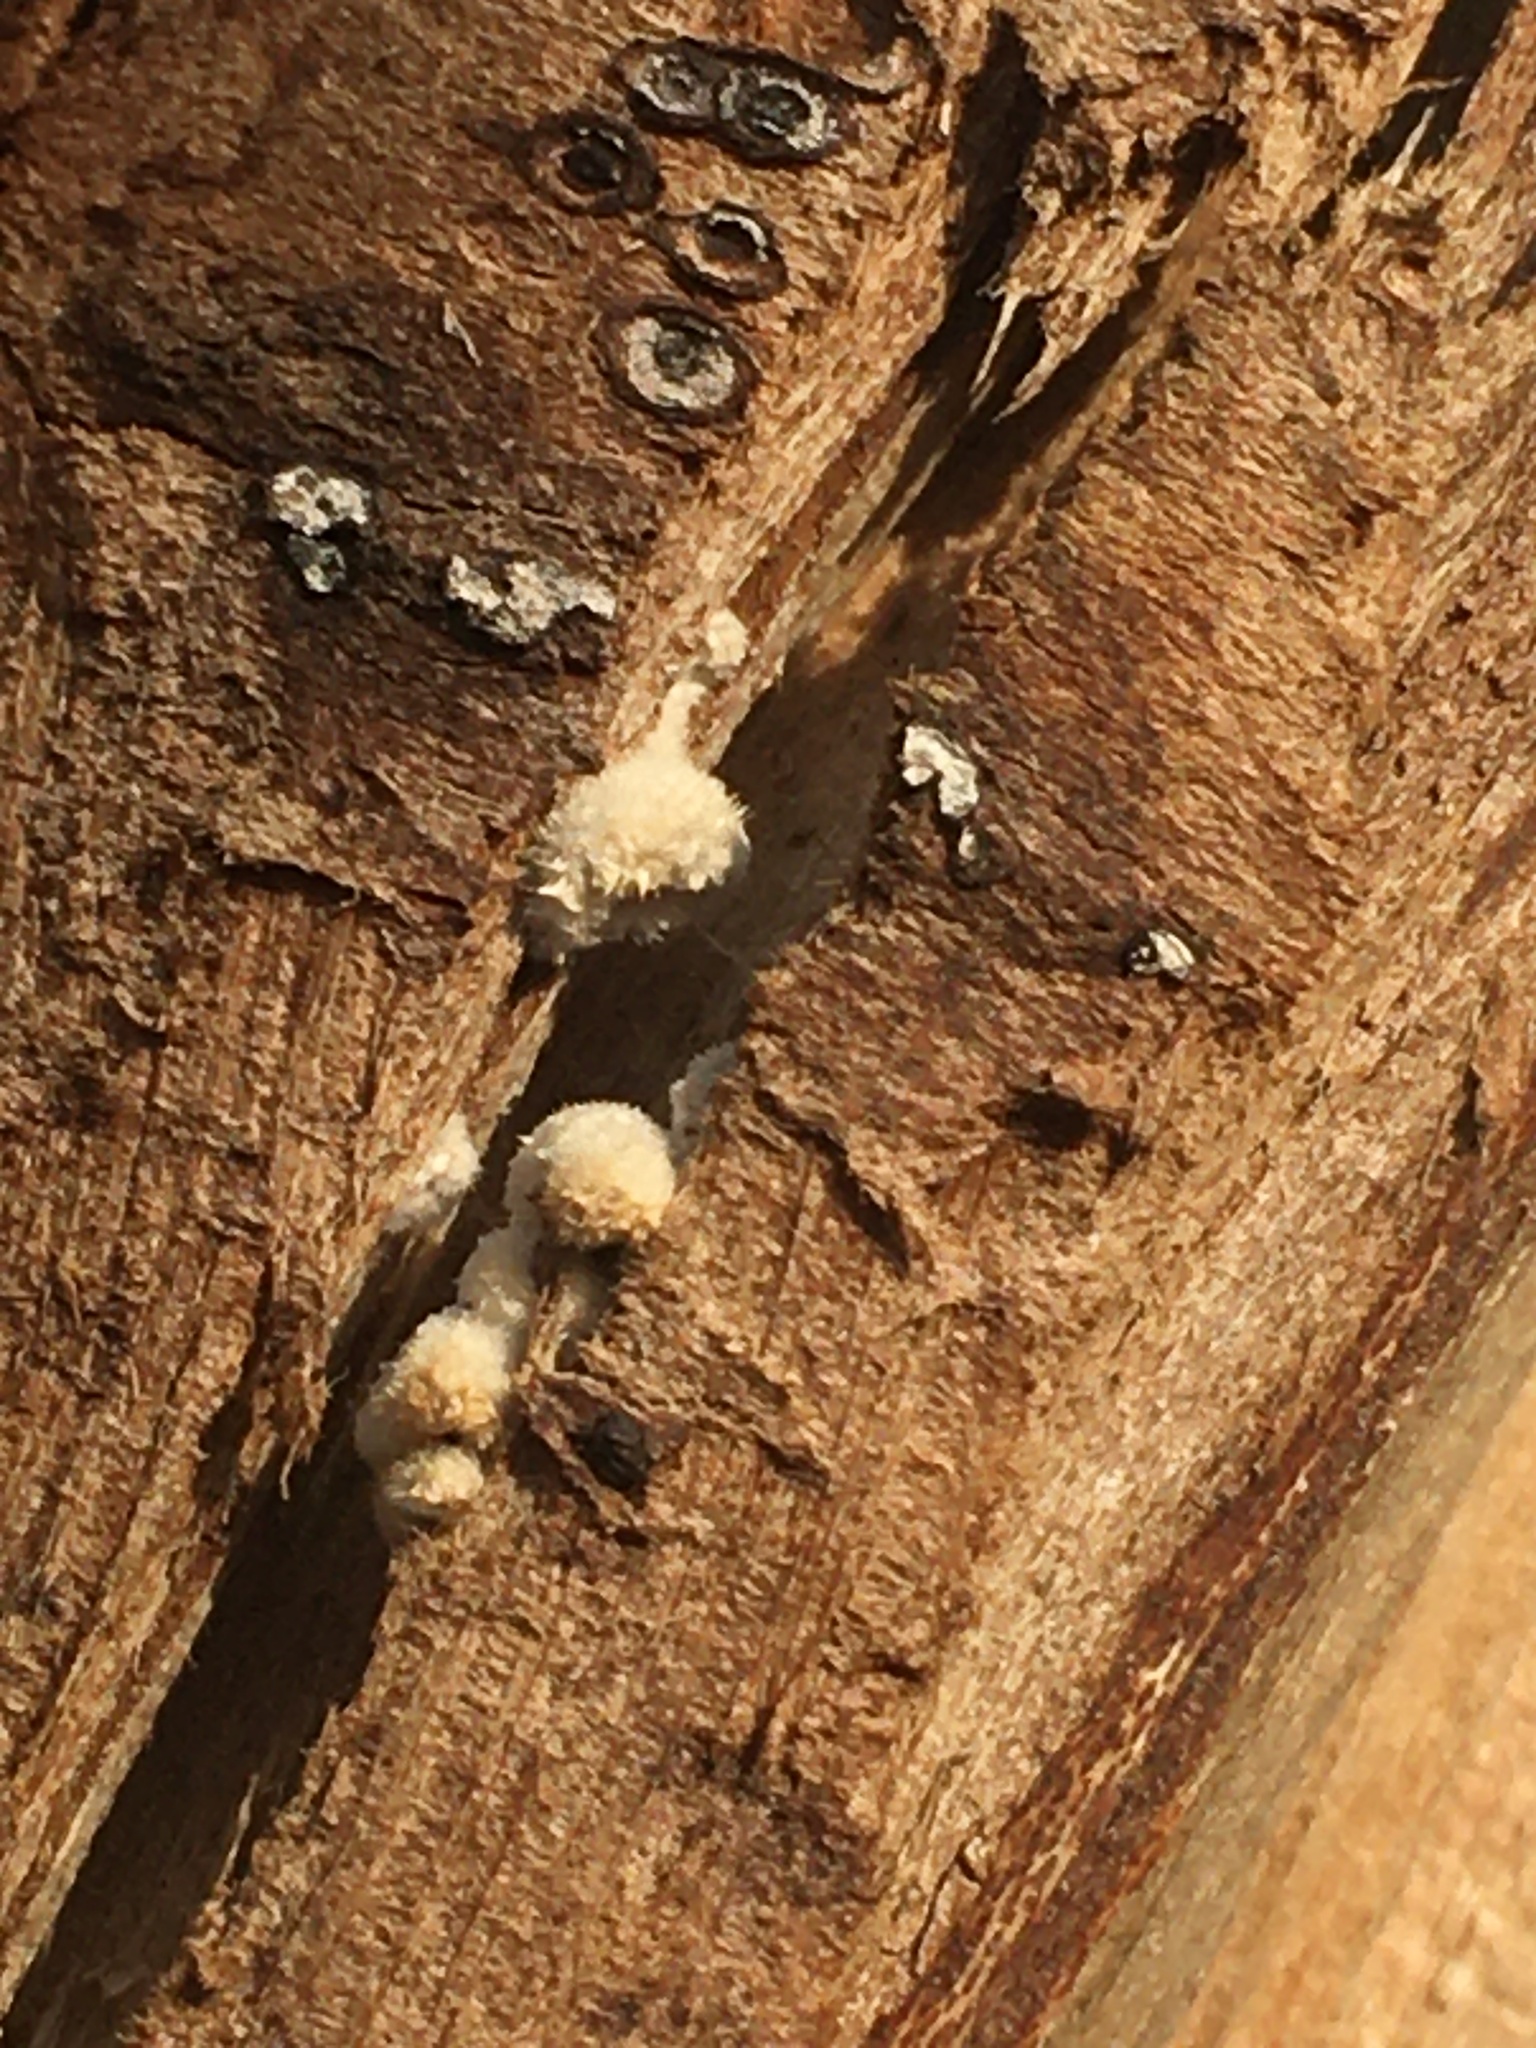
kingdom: Fungi
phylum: Basidiomycota
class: Agaricomycetes
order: Agaricales
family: Schizophyllaceae
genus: Schizophyllum
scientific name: Schizophyllum commune
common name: Common porecrust
